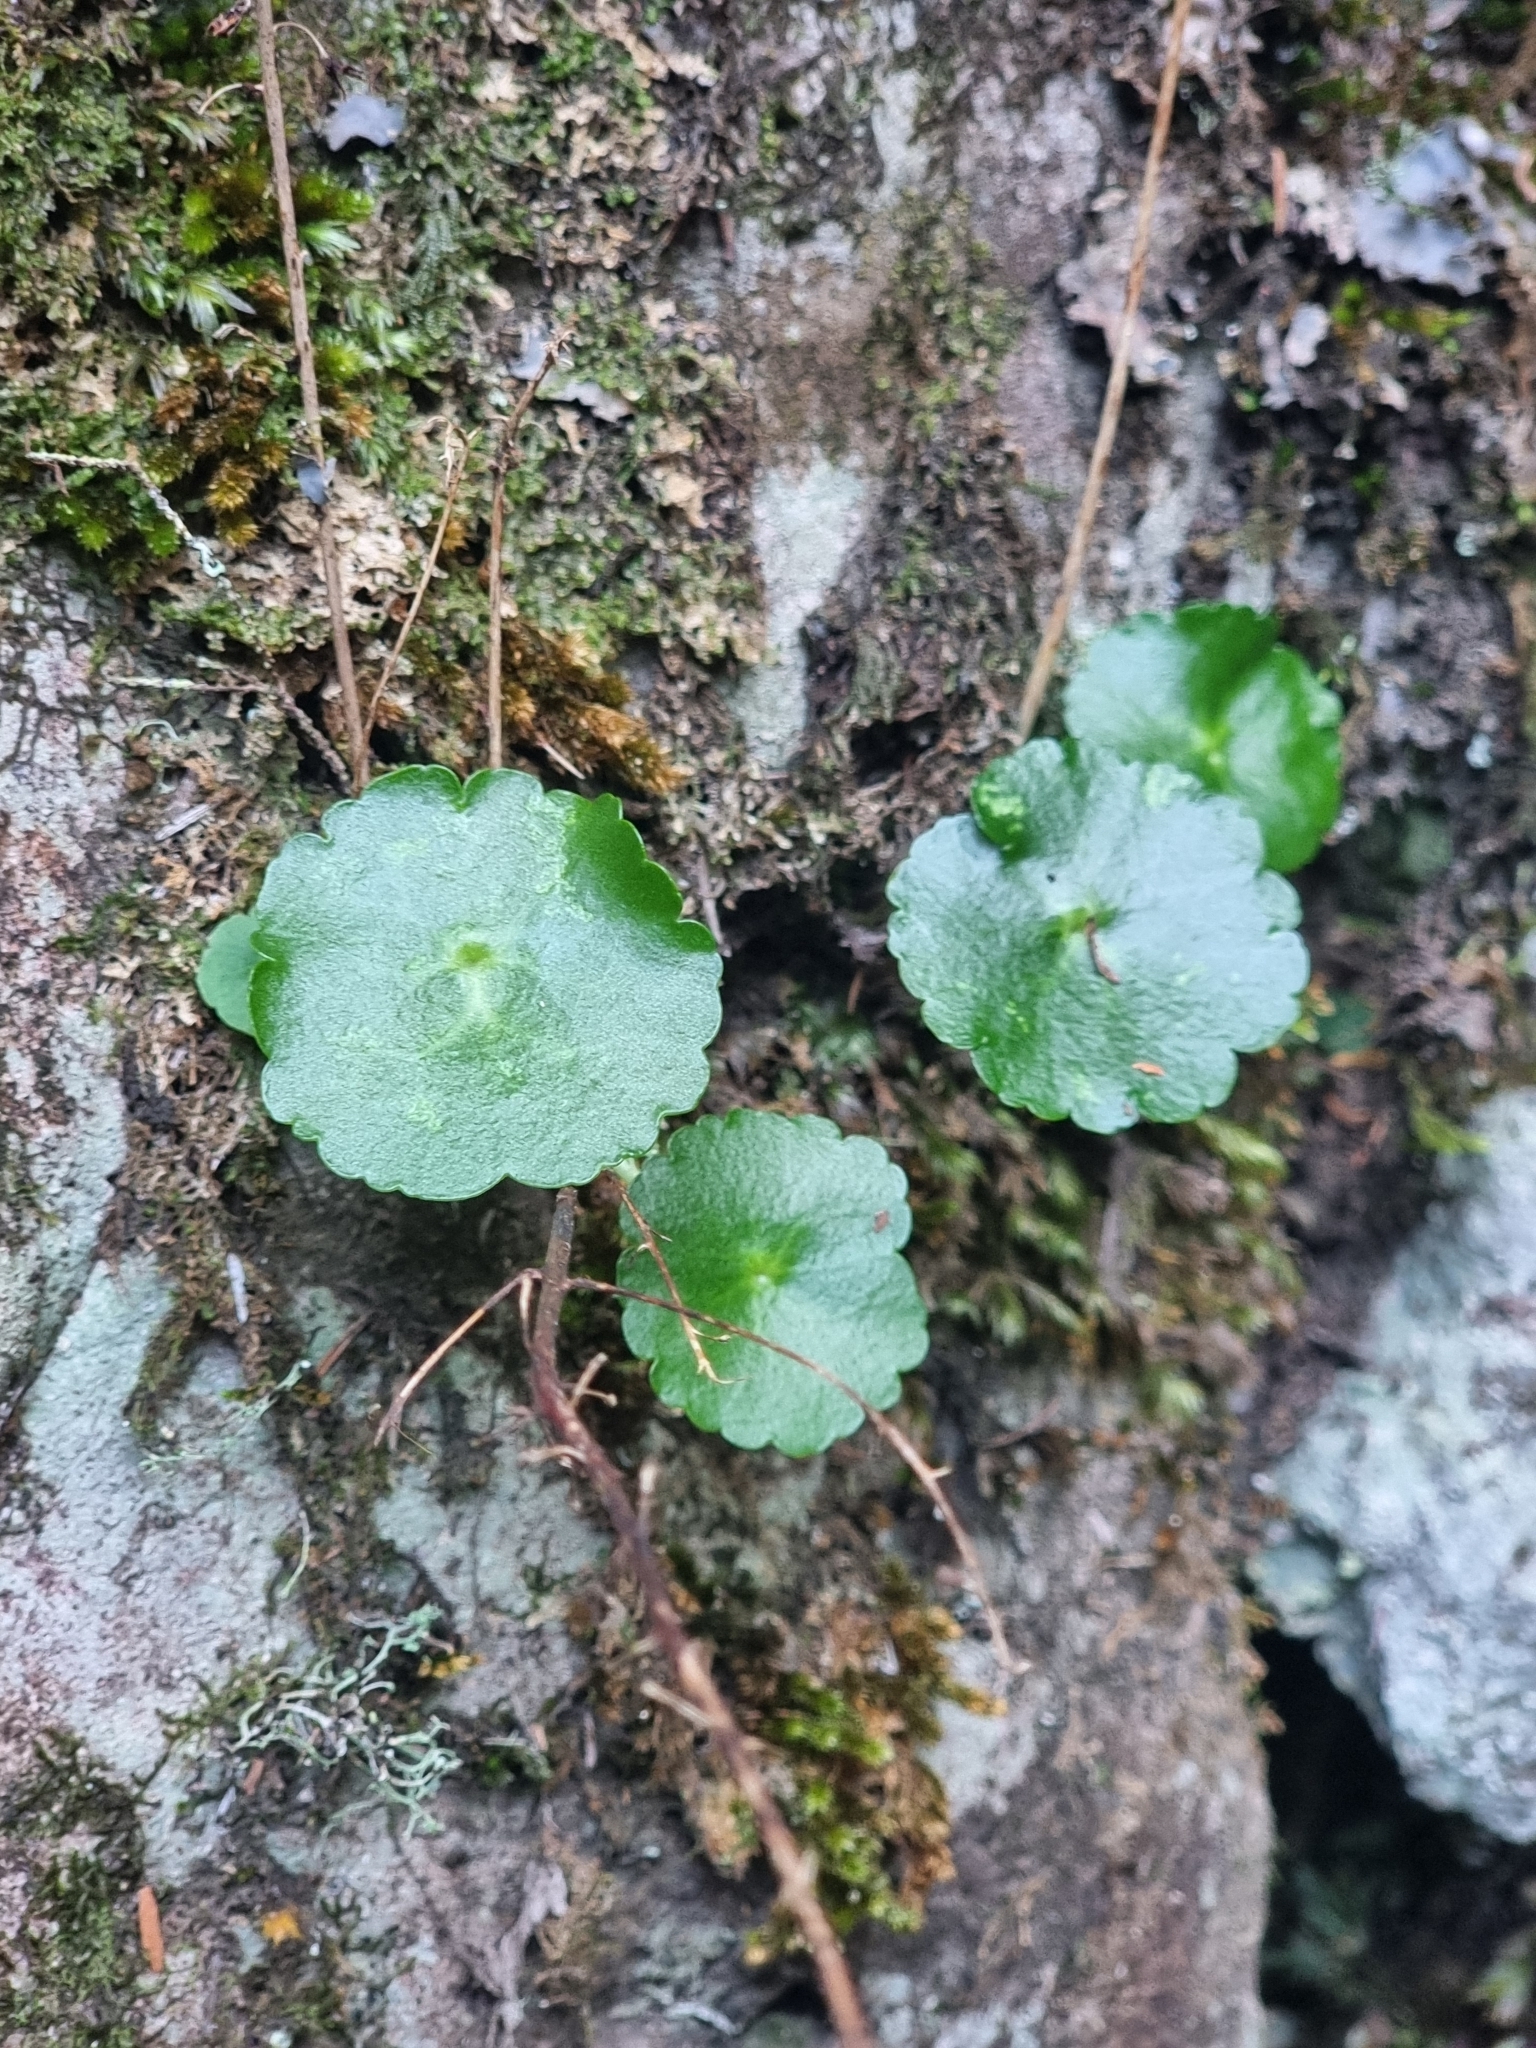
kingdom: Plantae
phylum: Tracheophyta
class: Magnoliopsida
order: Saxifragales
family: Crassulaceae
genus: Umbilicus
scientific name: Umbilicus rupestris
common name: Navelwort
